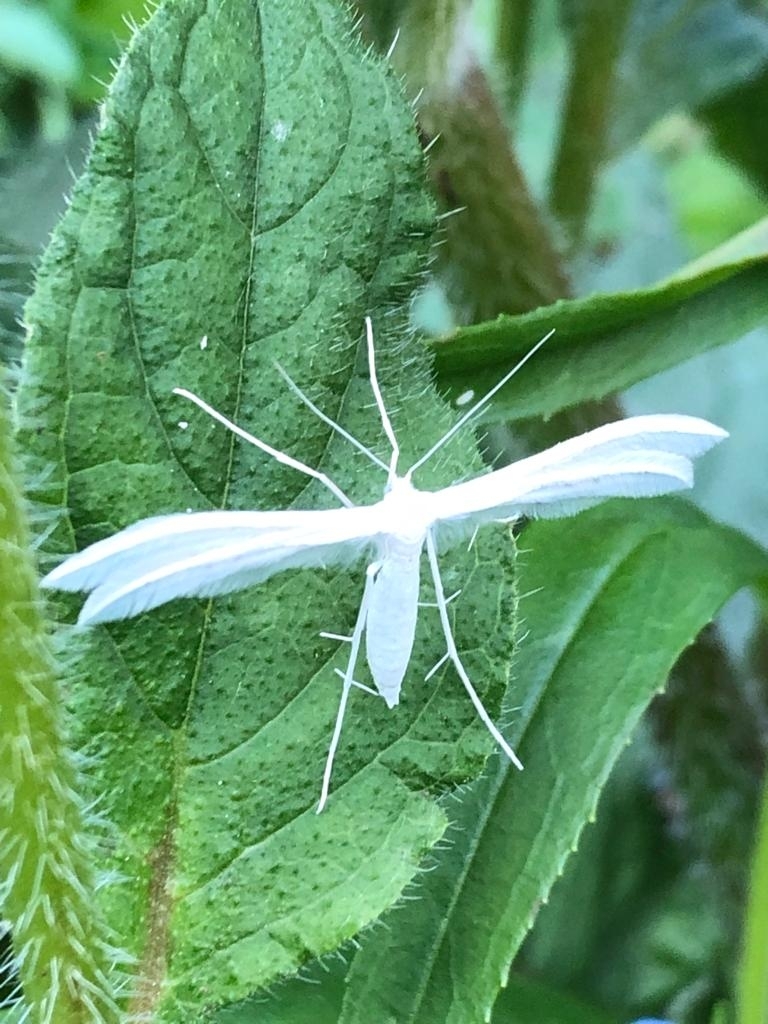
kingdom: Animalia
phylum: Arthropoda
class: Insecta
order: Lepidoptera
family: Pterophoridae
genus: Pterophorus
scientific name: Pterophorus pentadactyla
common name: White plume moth
